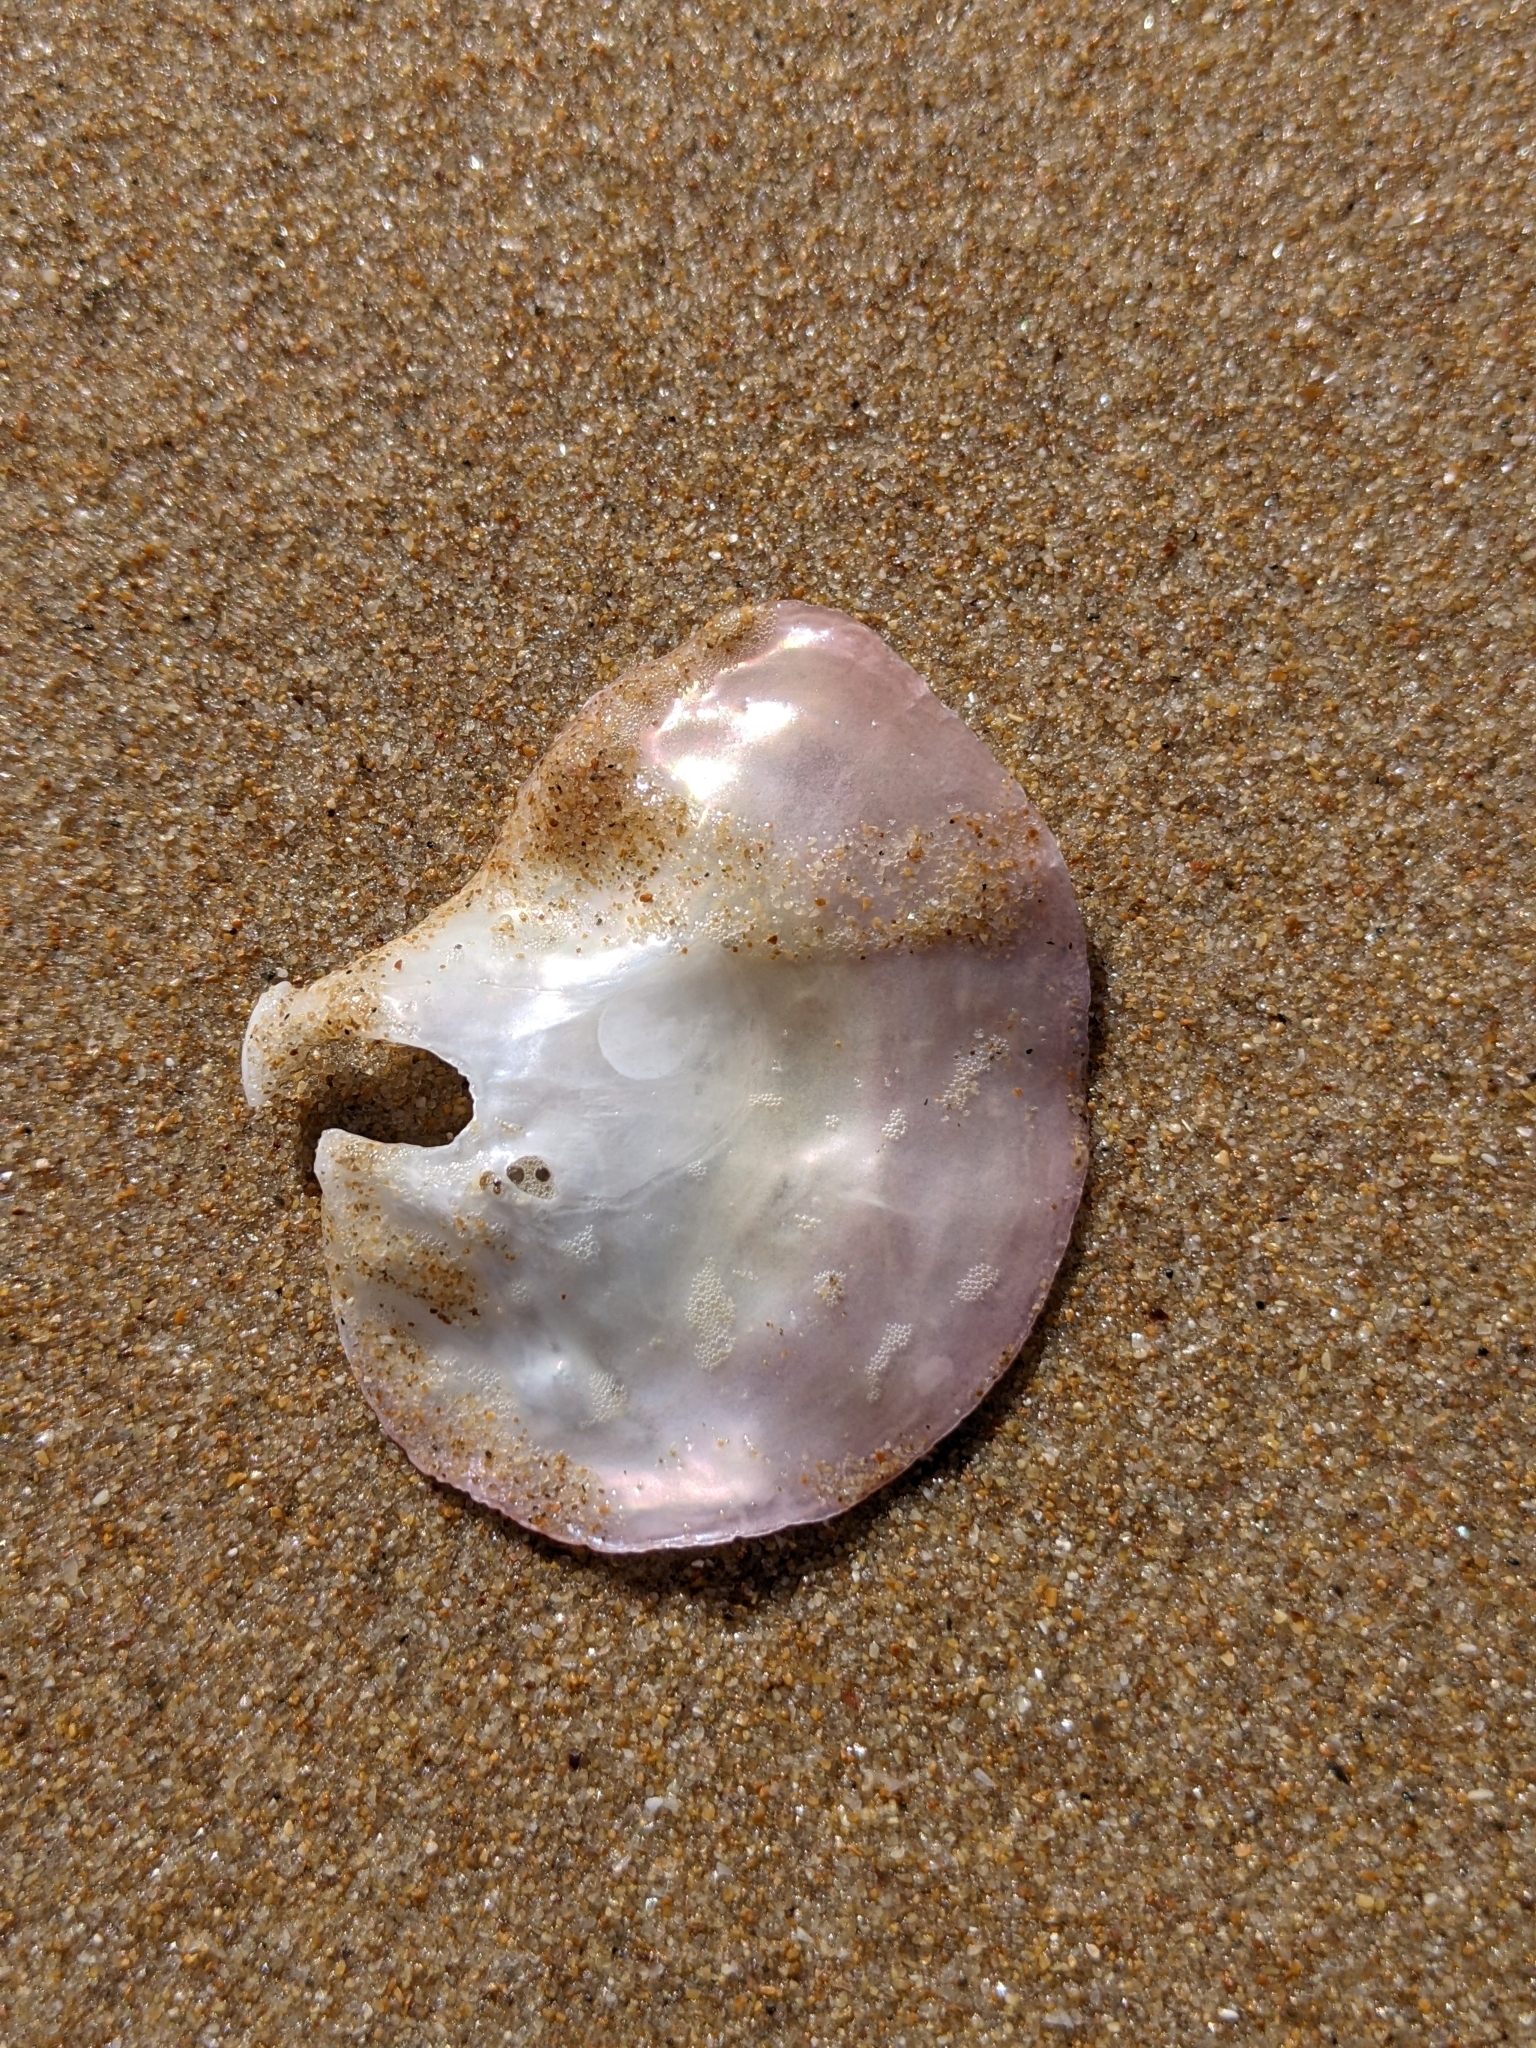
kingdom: Animalia
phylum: Mollusca
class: Bivalvia
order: Pectinida
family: Anomiidae
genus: Anomia
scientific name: Anomia ephippium
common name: Saddle oyster
